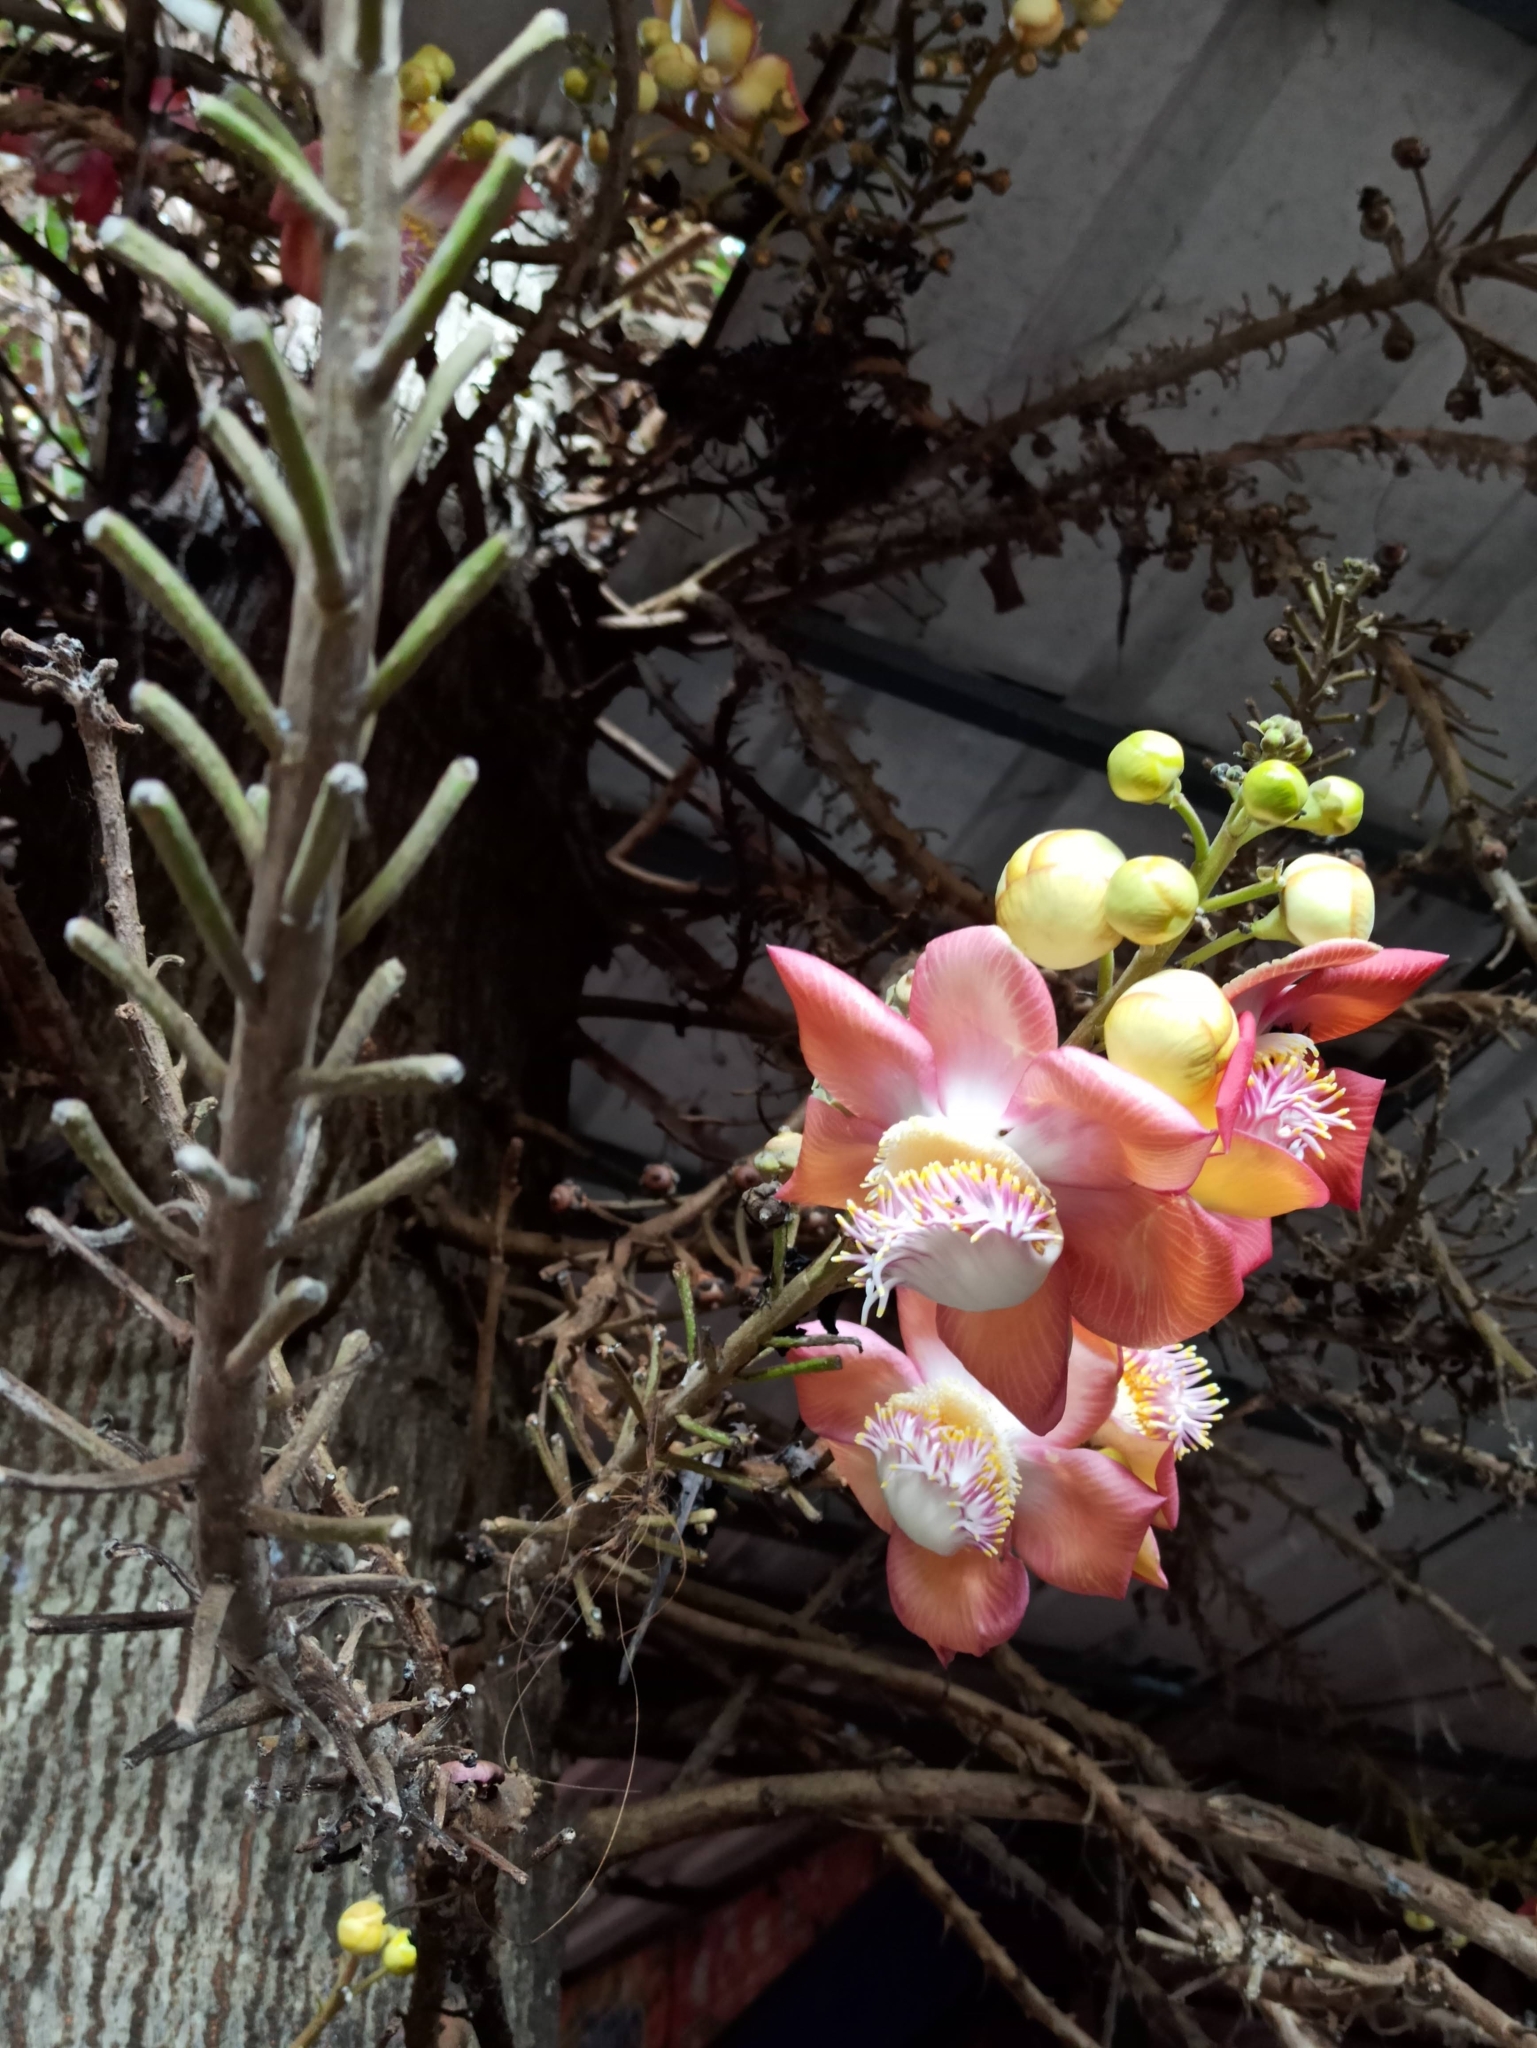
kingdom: Plantae
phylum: Tracheophyta
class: Magnoliopsida
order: Ericales
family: Lecythidaceae
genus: Couroupita
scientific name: Couroupita guianensis
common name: Cannonball tree
